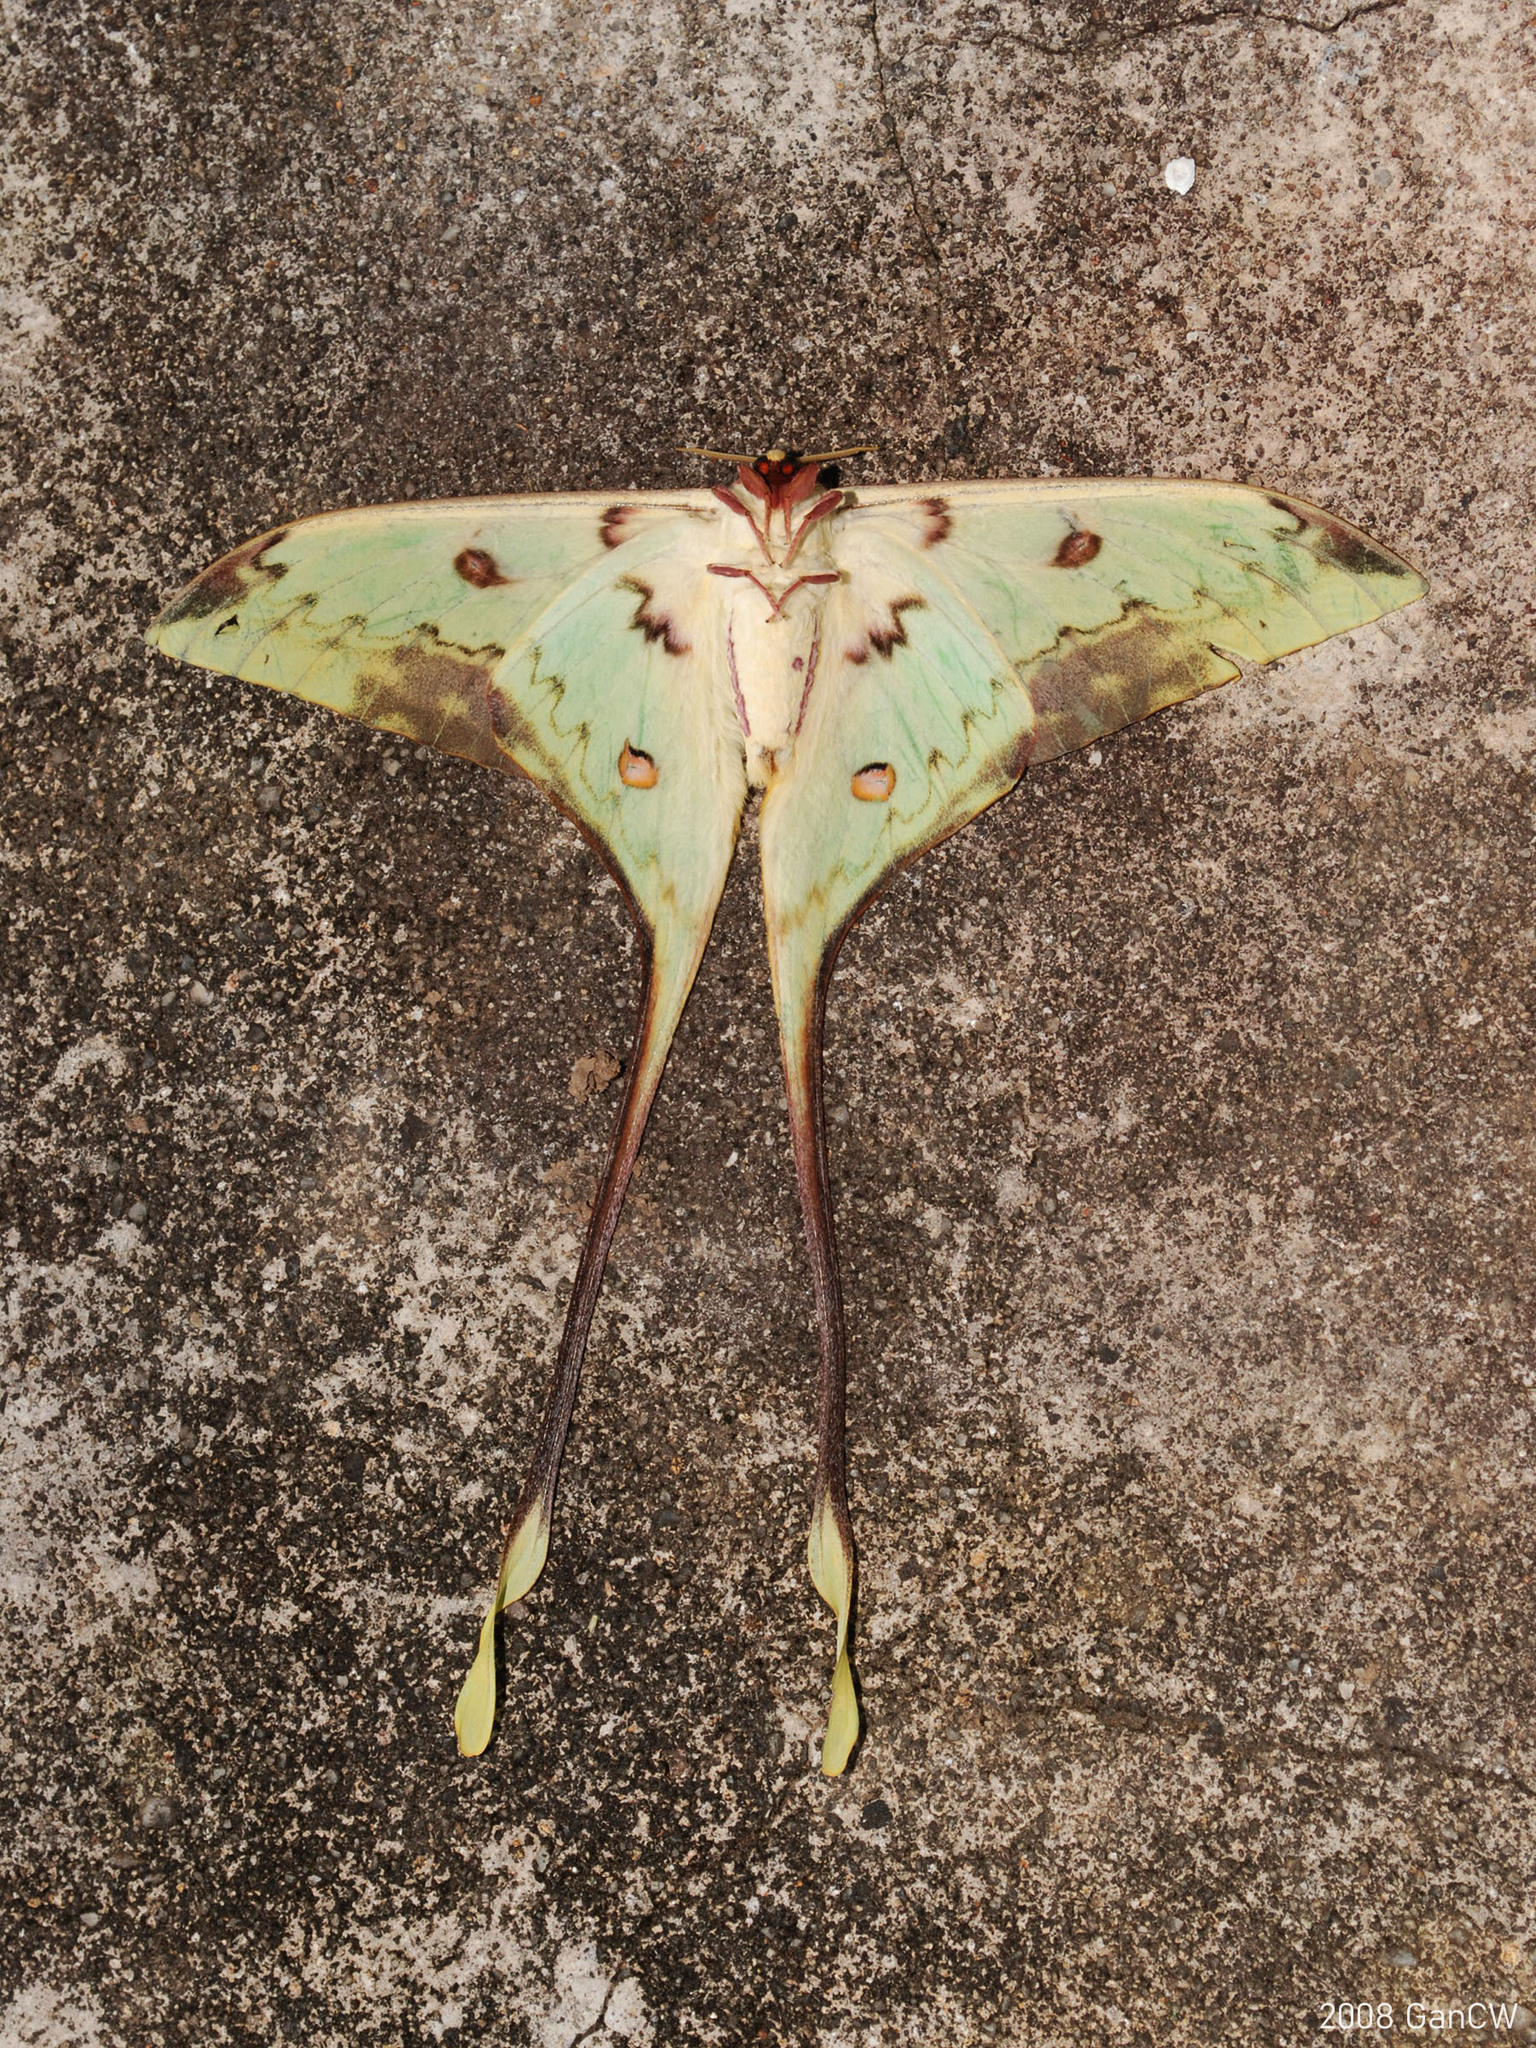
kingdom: Animalia
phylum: Arthropoda
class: Insecta
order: Lepidoptera
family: Saturniidae
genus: Actias
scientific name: Actias maenas
